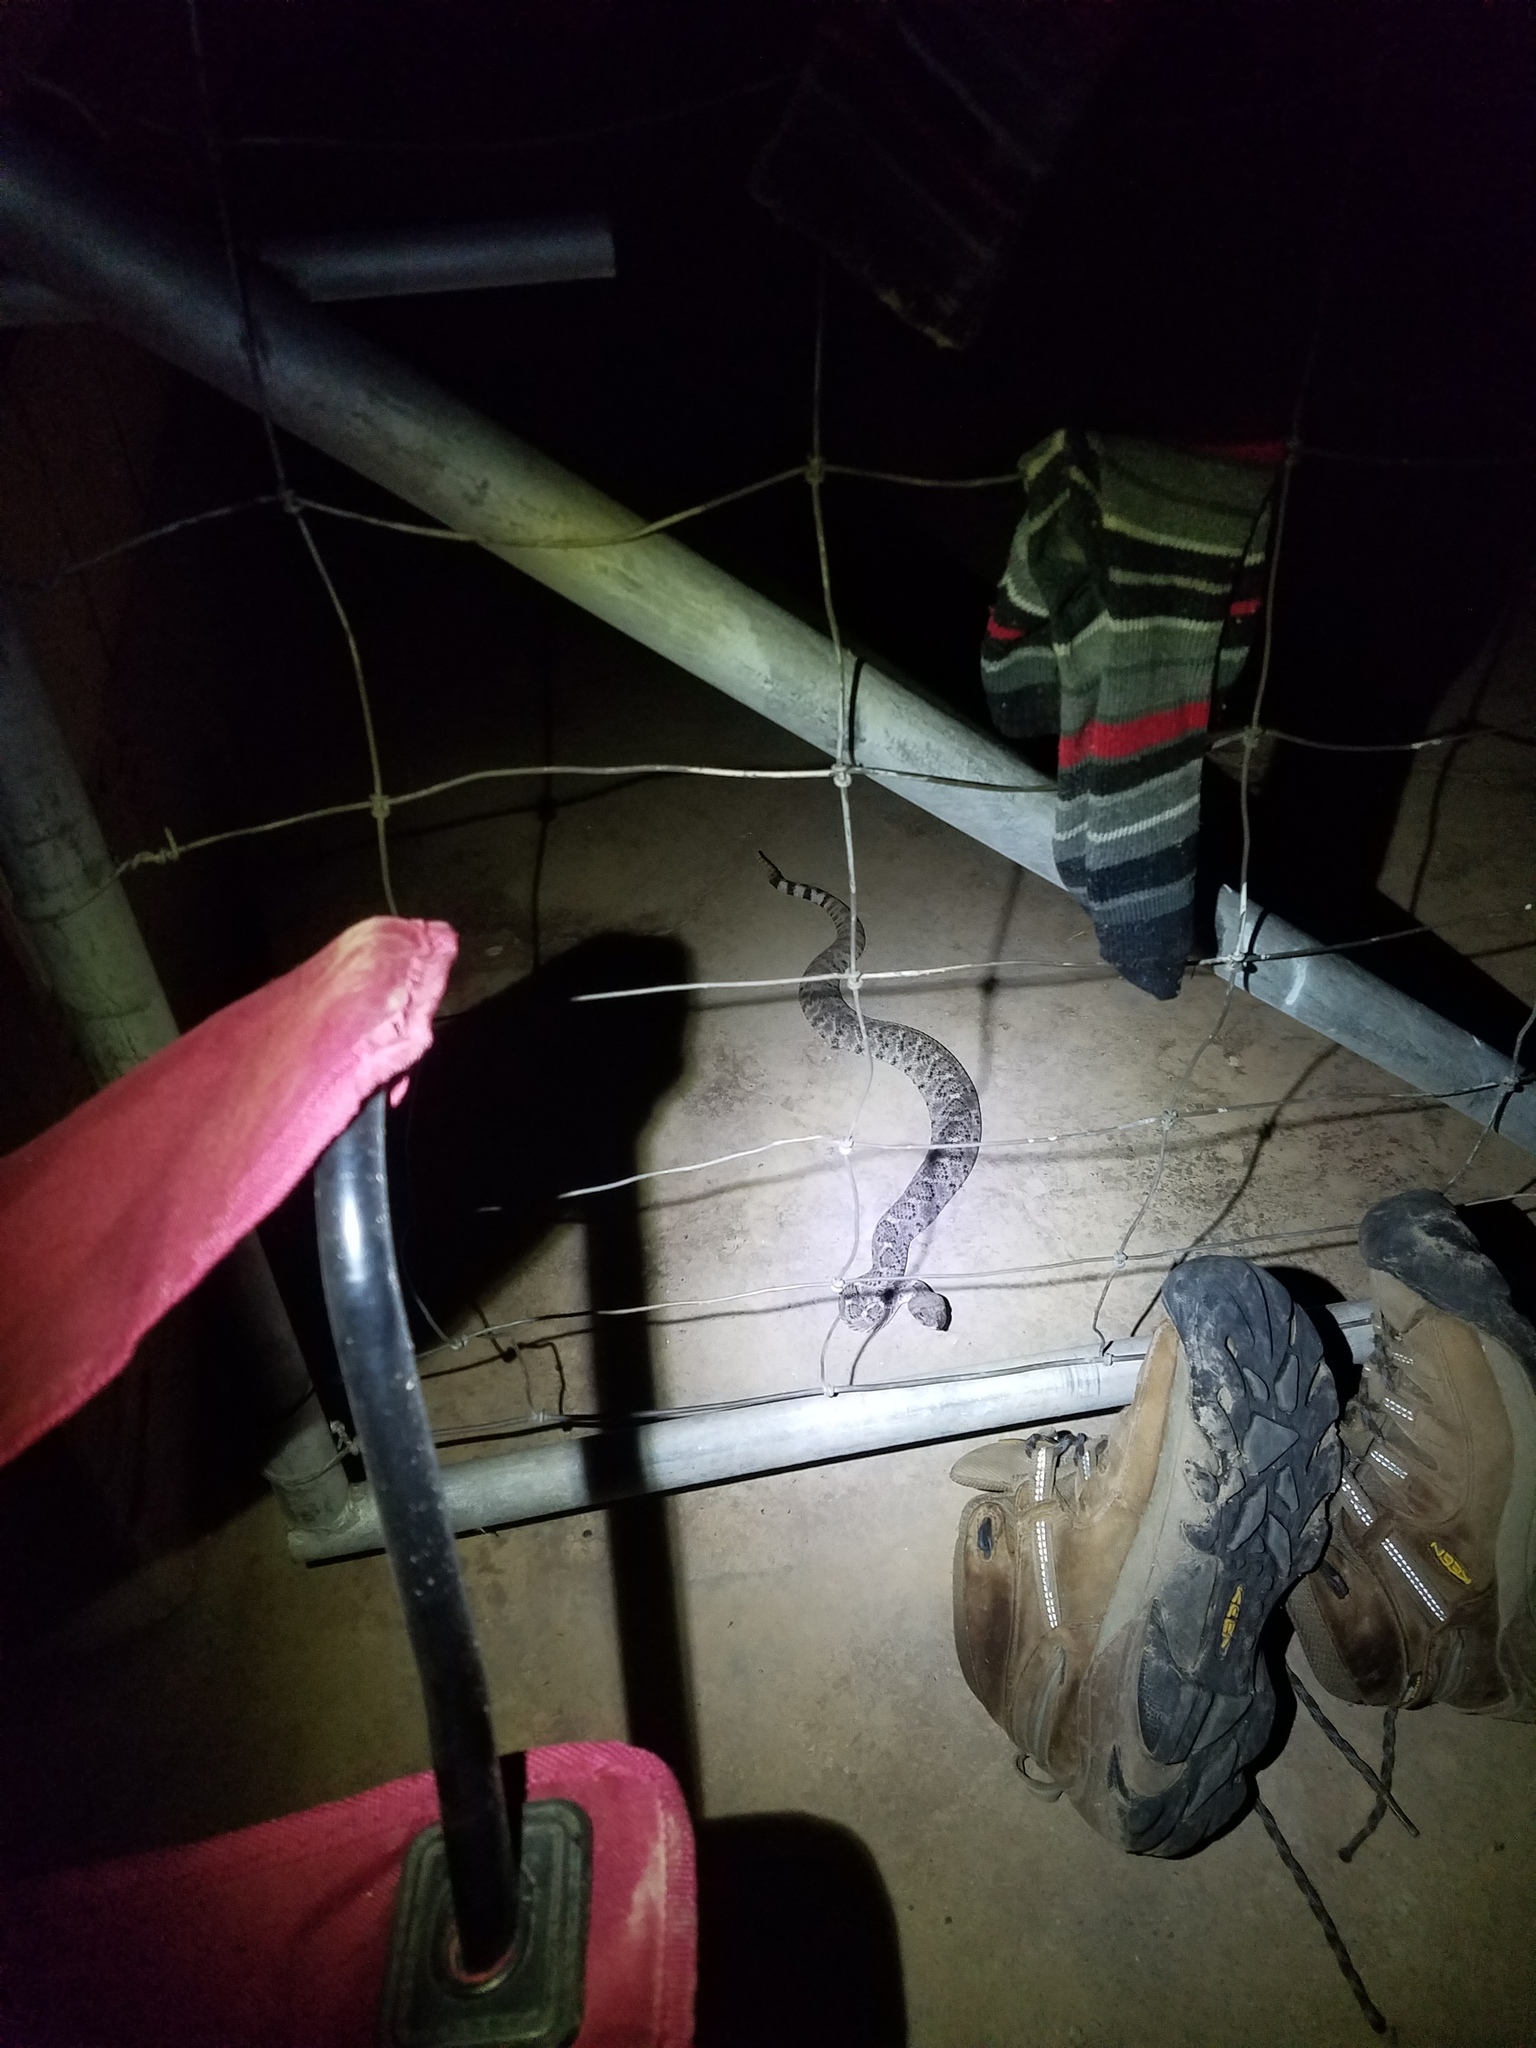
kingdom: Animalia
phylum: Chordata
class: Squamata
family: Viperidae
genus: Crotalus
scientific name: Crotalus atrox
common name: Western diamond-backed rattlesnake
